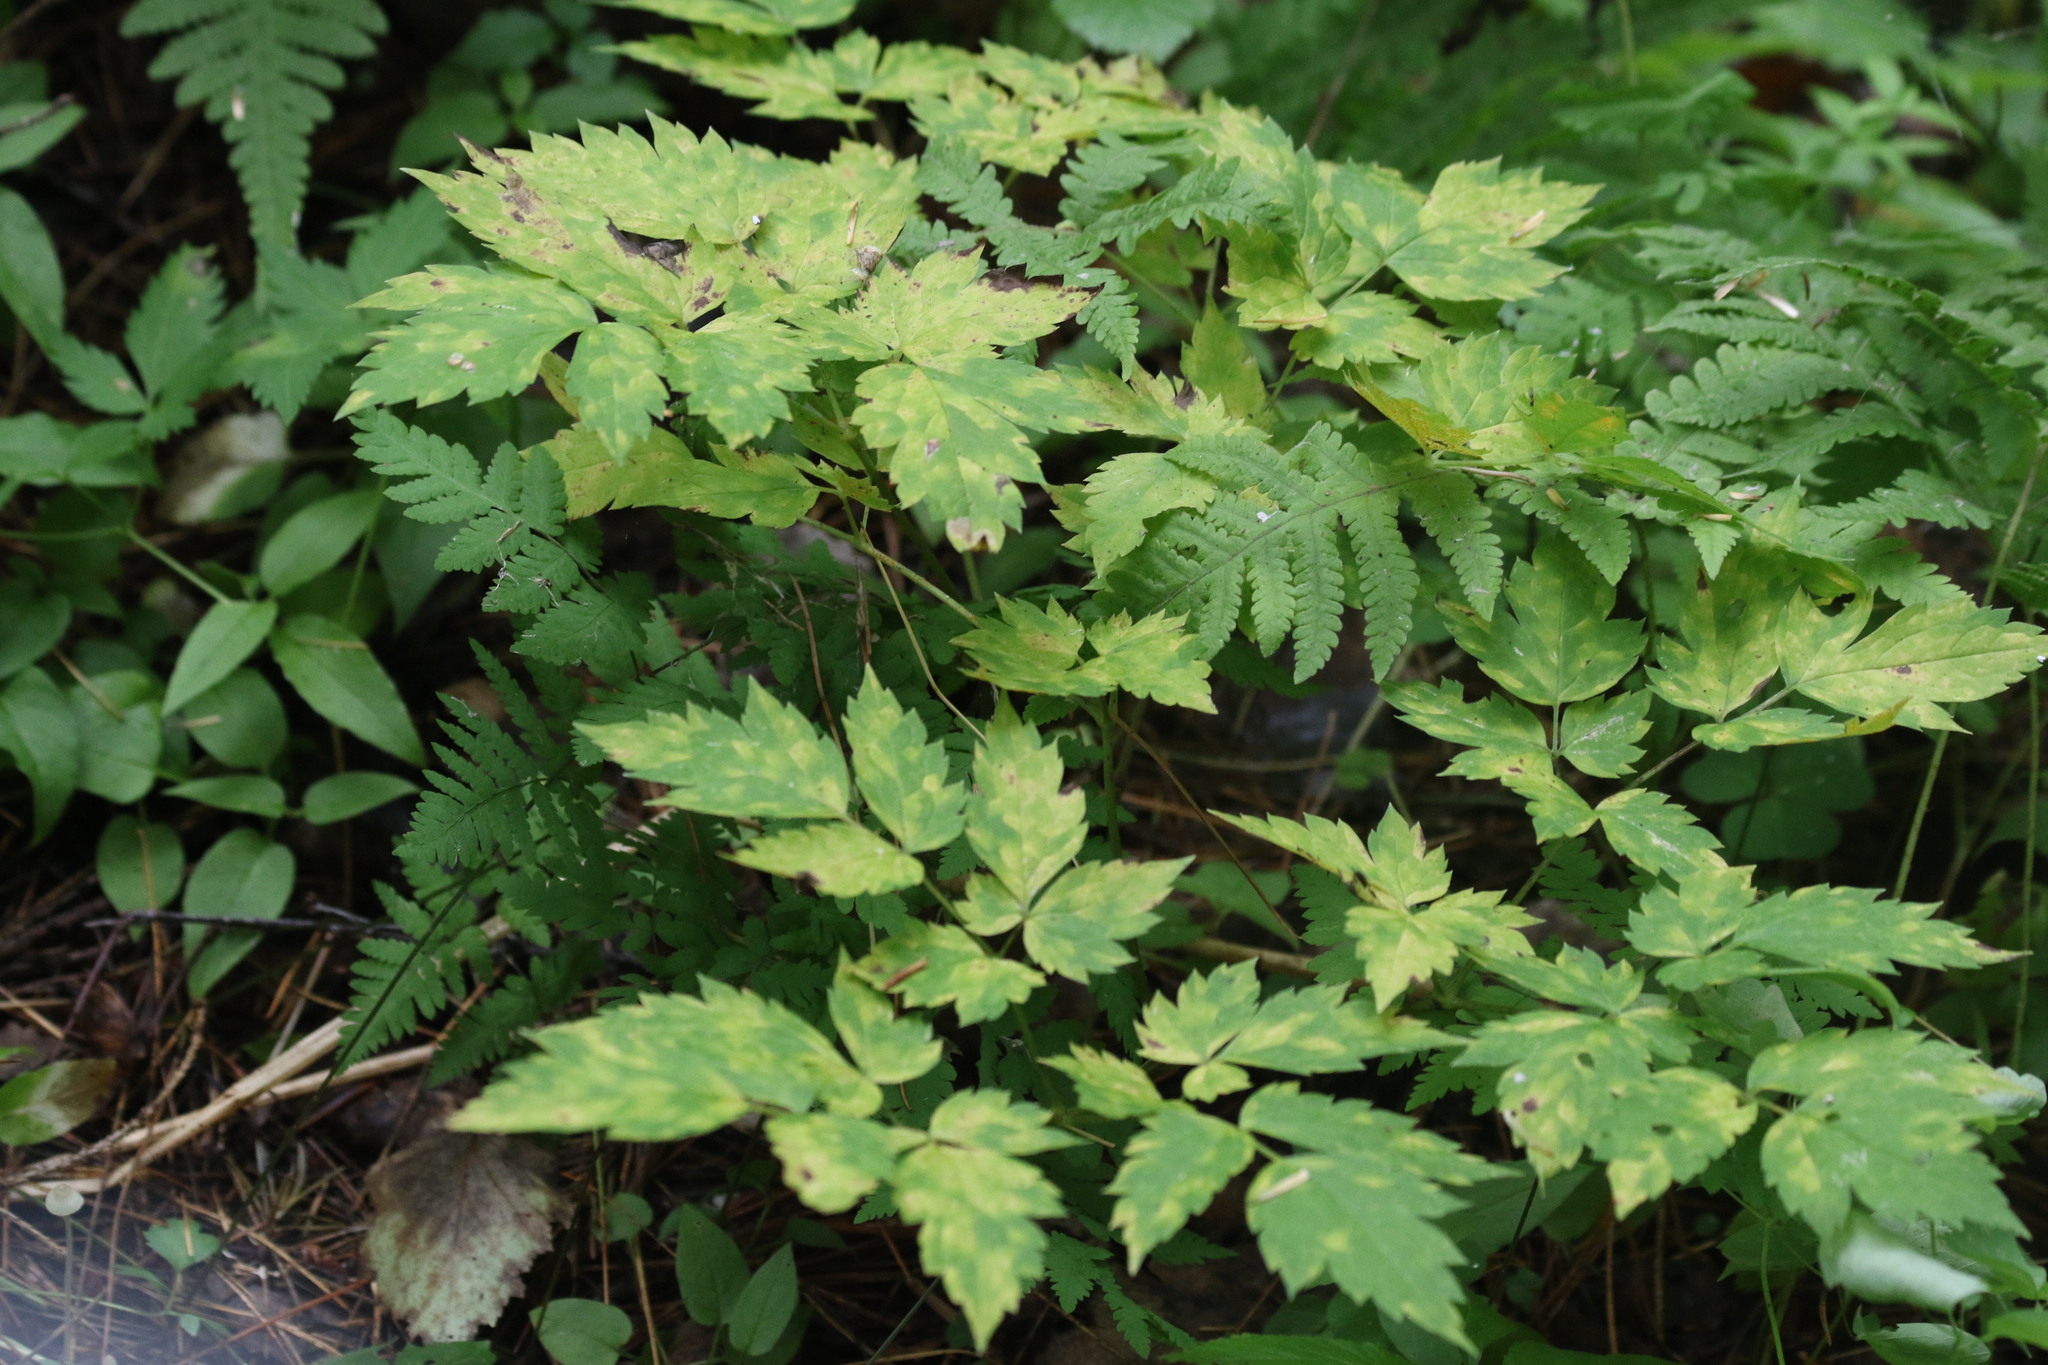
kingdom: Plantae
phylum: Tracheophyta
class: Magnoliopsida
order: Ranunculales
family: Ranunculaceae
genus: Actaea
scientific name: Actaea erythrocarpa
